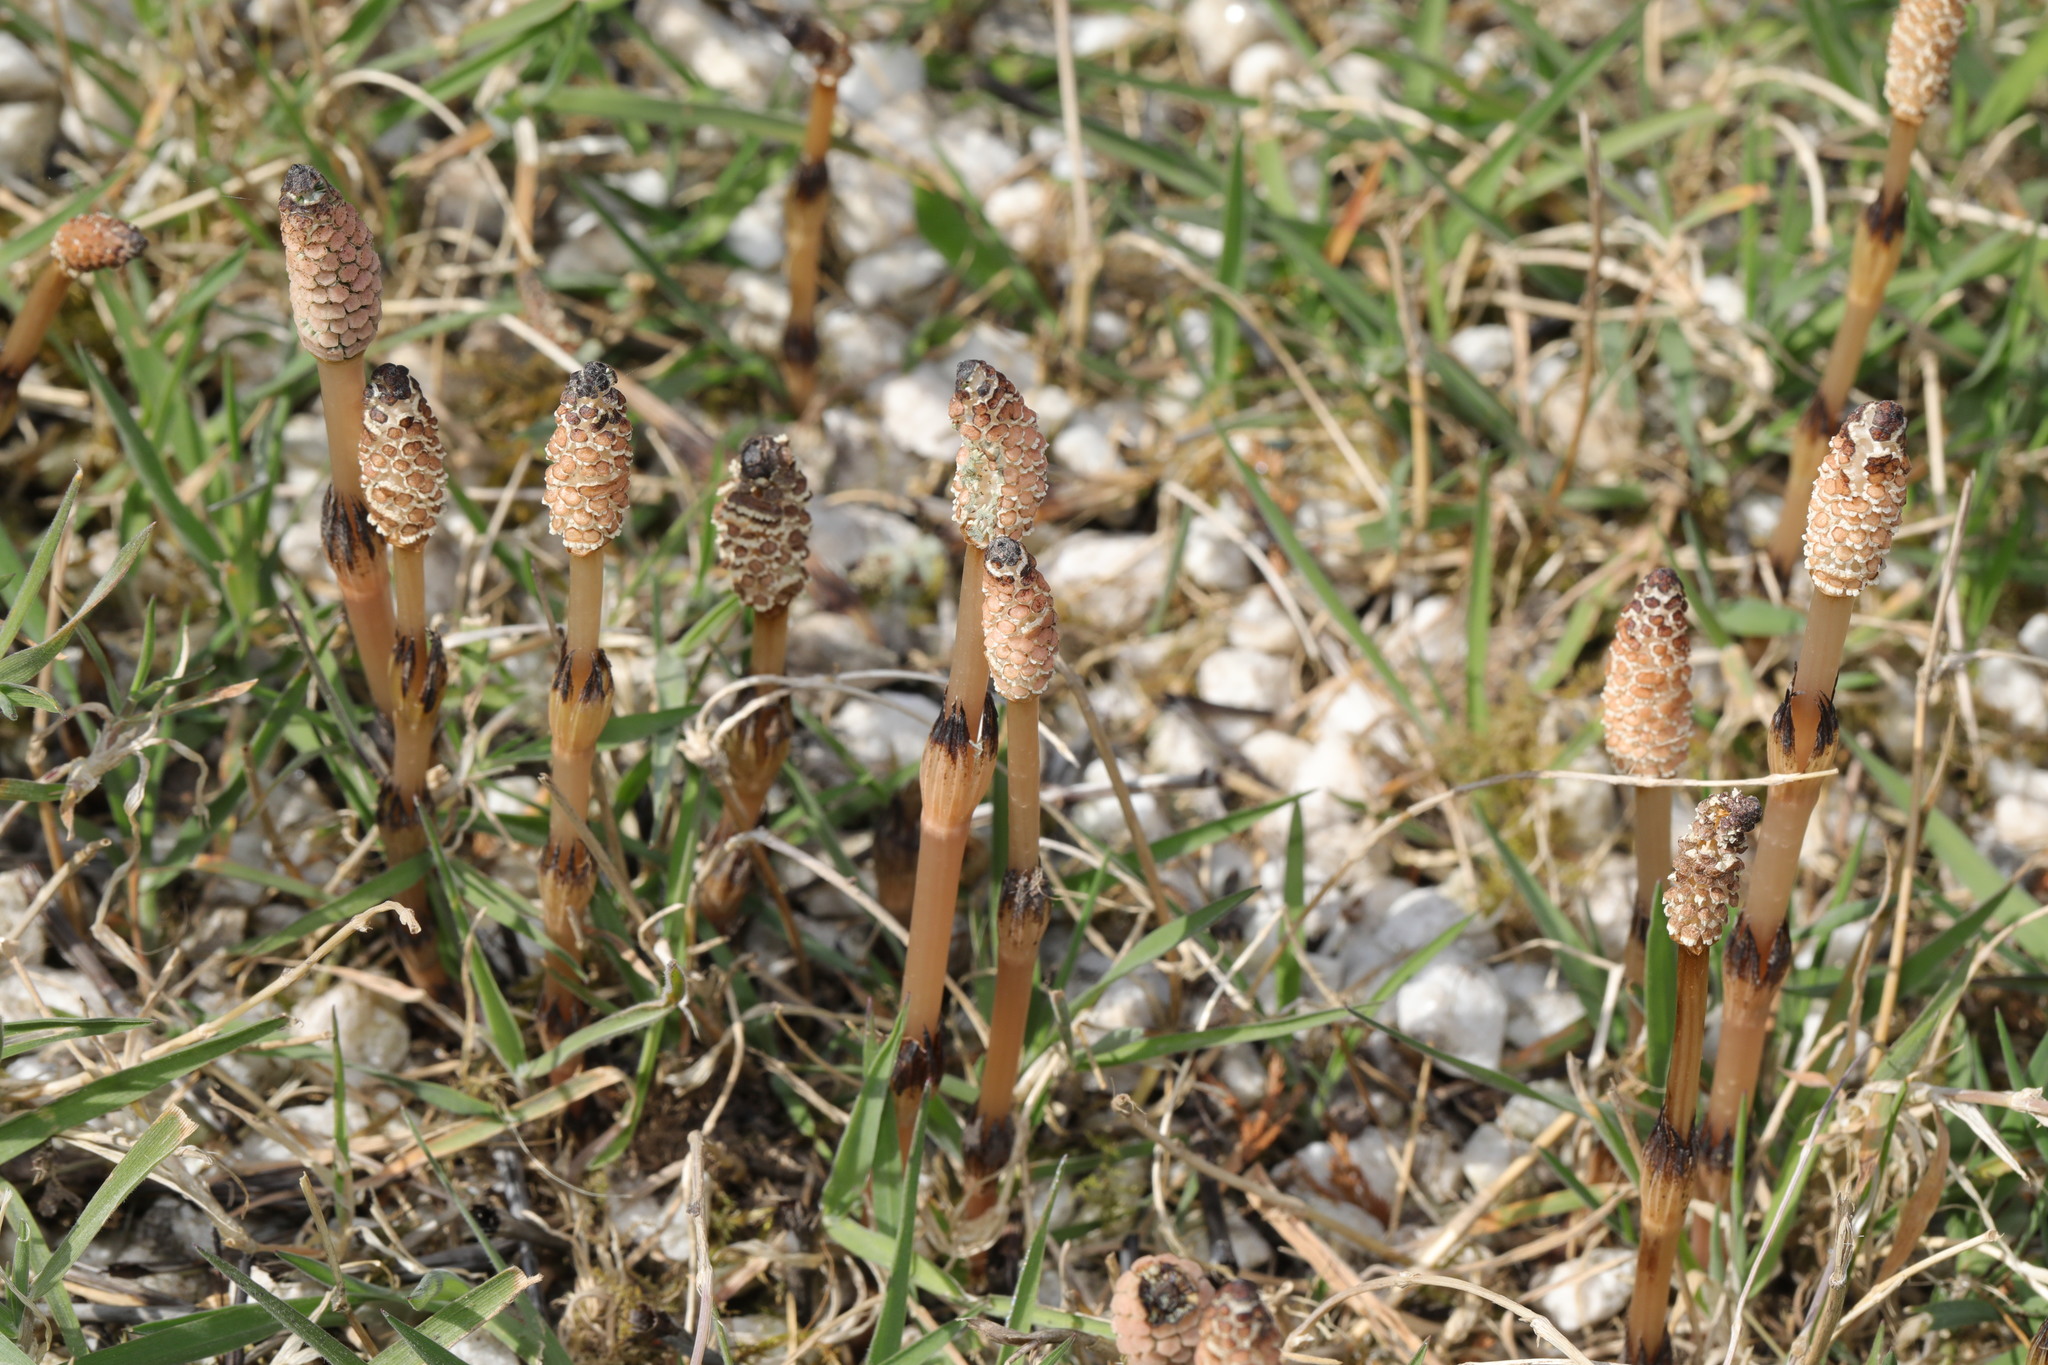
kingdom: Plantae
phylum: Tracheophyta
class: Polypodiopsida
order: Equisetales
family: Equisetaceae
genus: Equisetum
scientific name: Equisetum arvense
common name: Field horsetail
